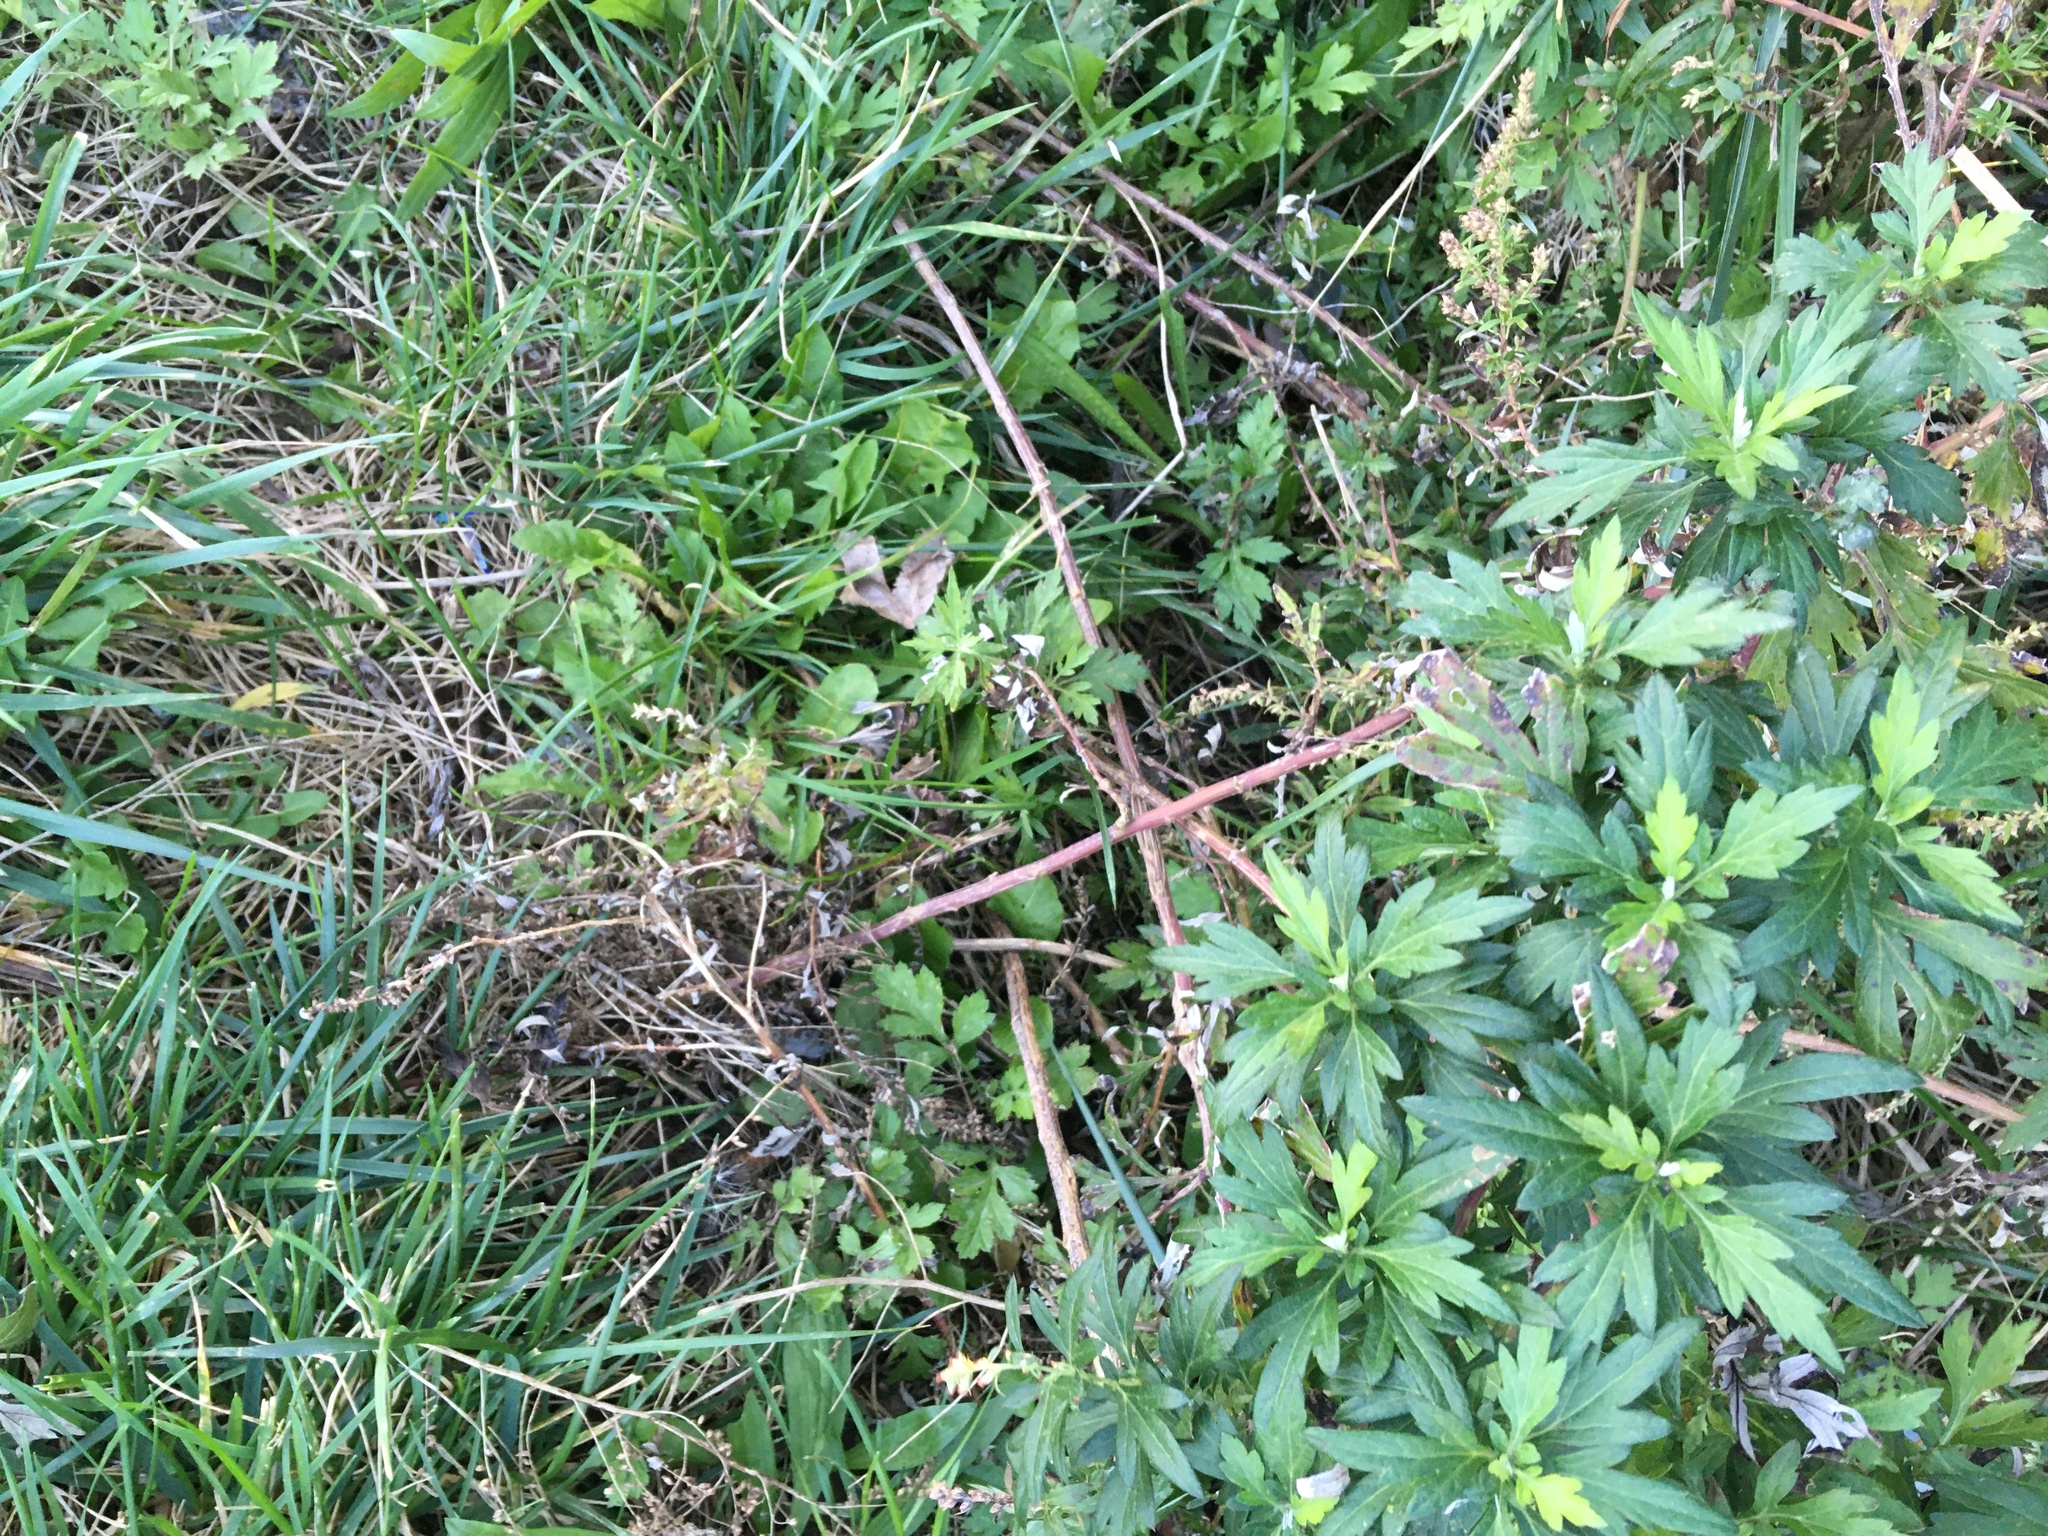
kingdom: Plantae
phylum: Tracheophyta
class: Magnoliopsida
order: Asterales
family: Asteraceae
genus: Artemisia
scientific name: Artemisia vulgaris
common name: Mugwort
